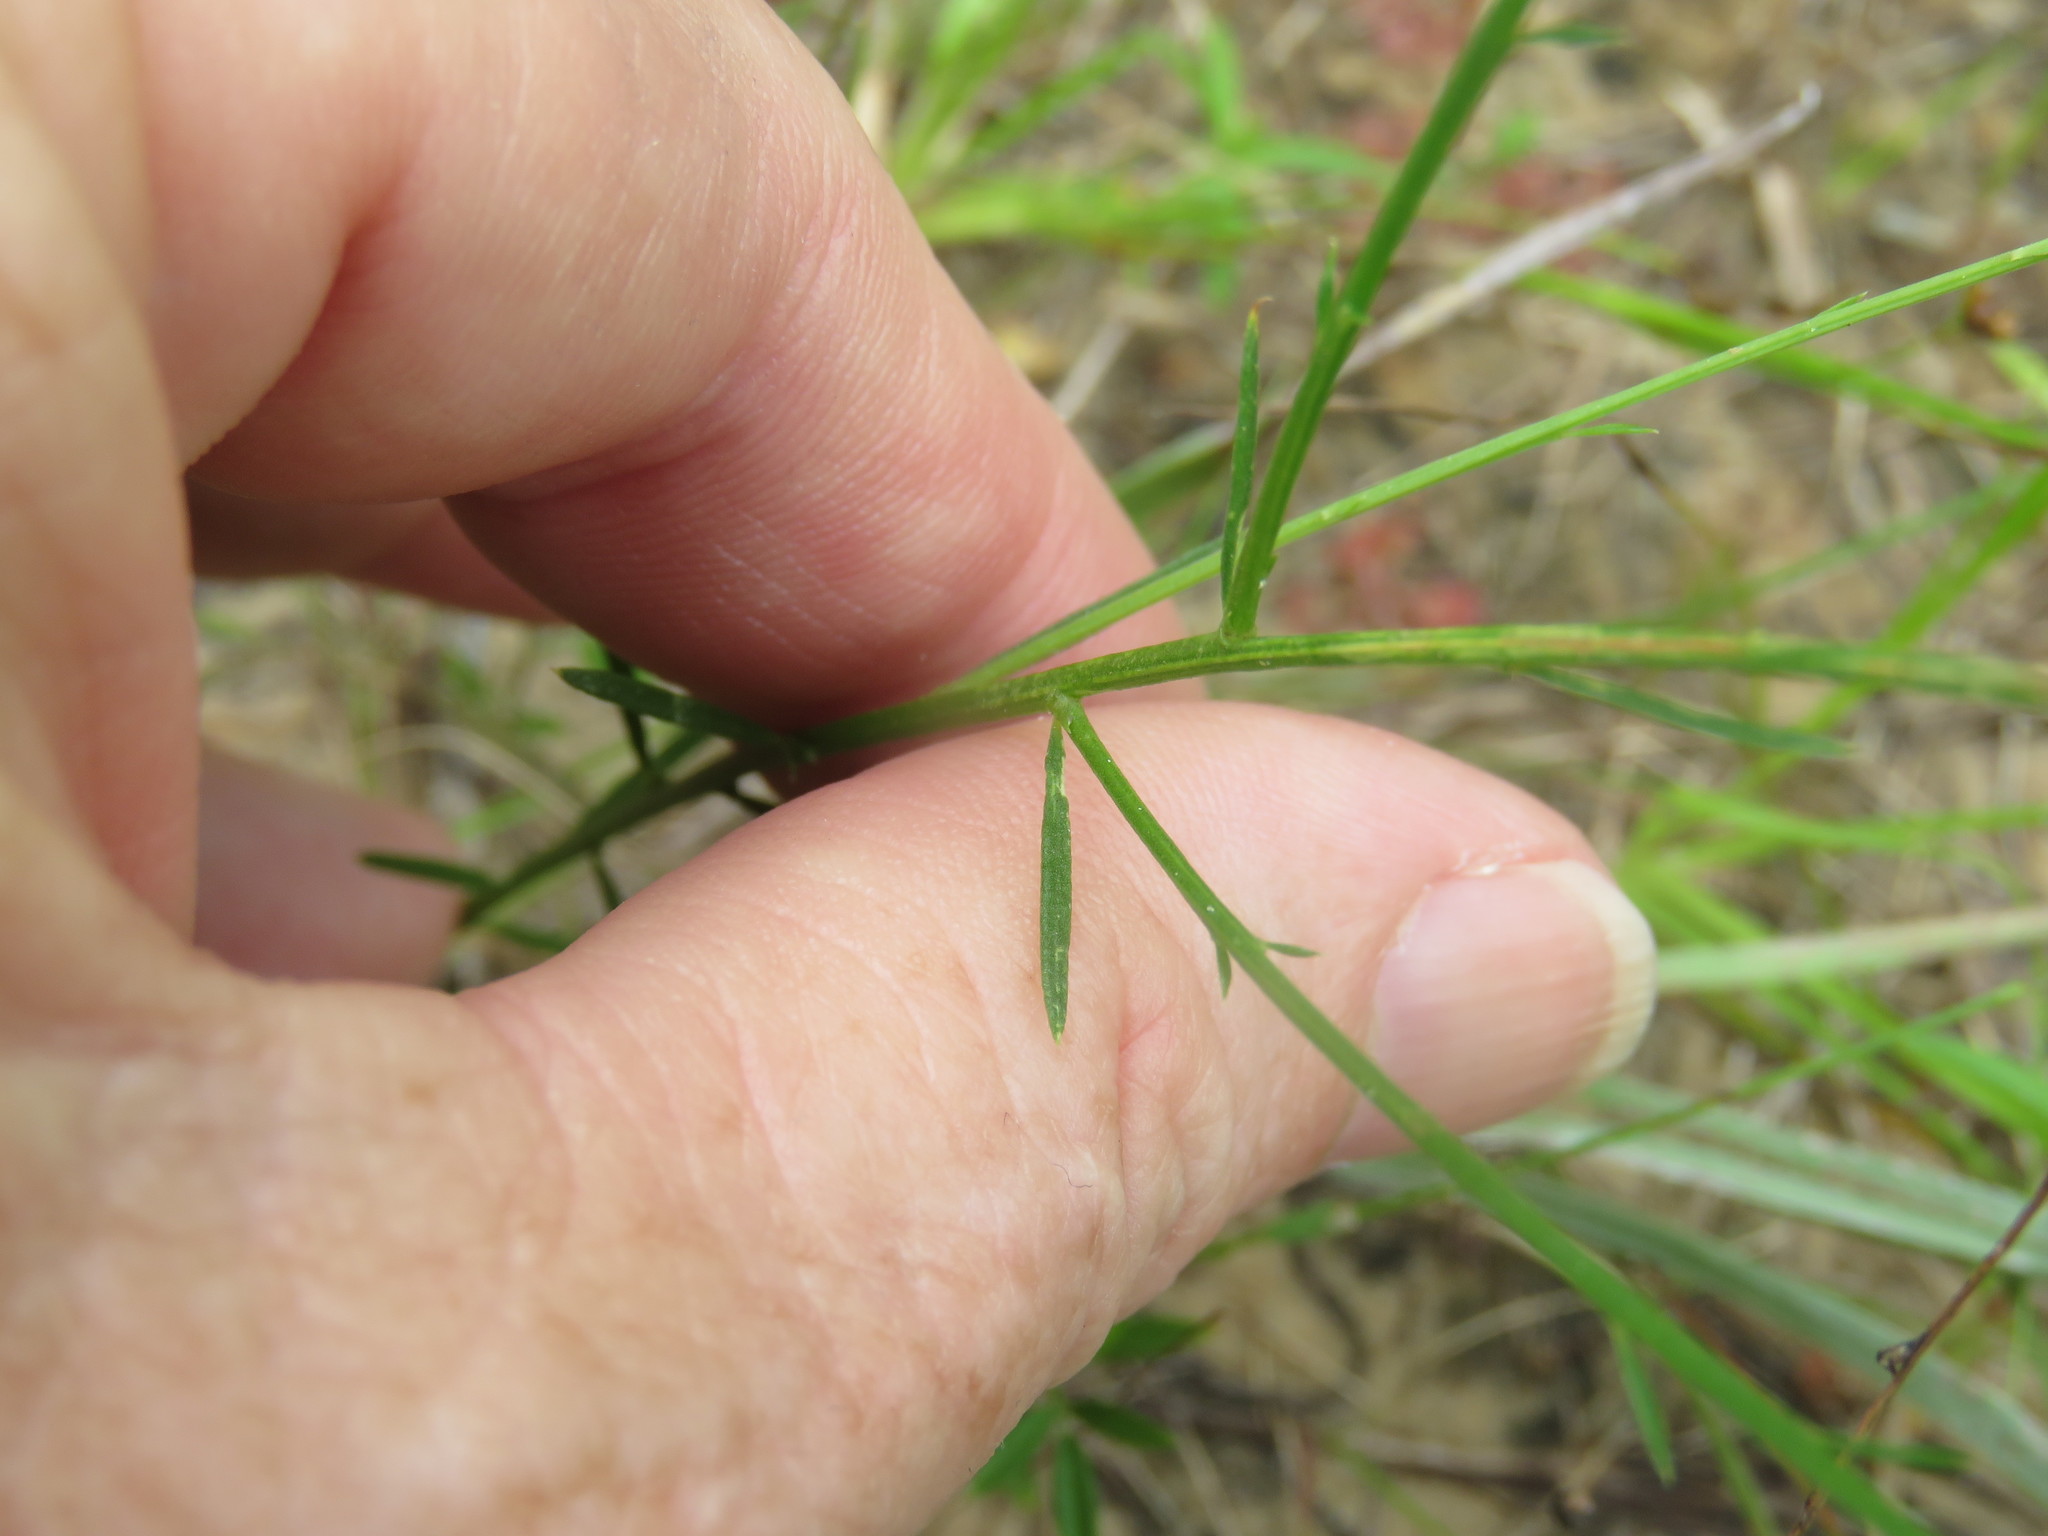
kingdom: Plantae
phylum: Tracheophyta
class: Magnoliopsida
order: Fabales
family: Polygalaceae
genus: Polygala
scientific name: Polygala mariana
